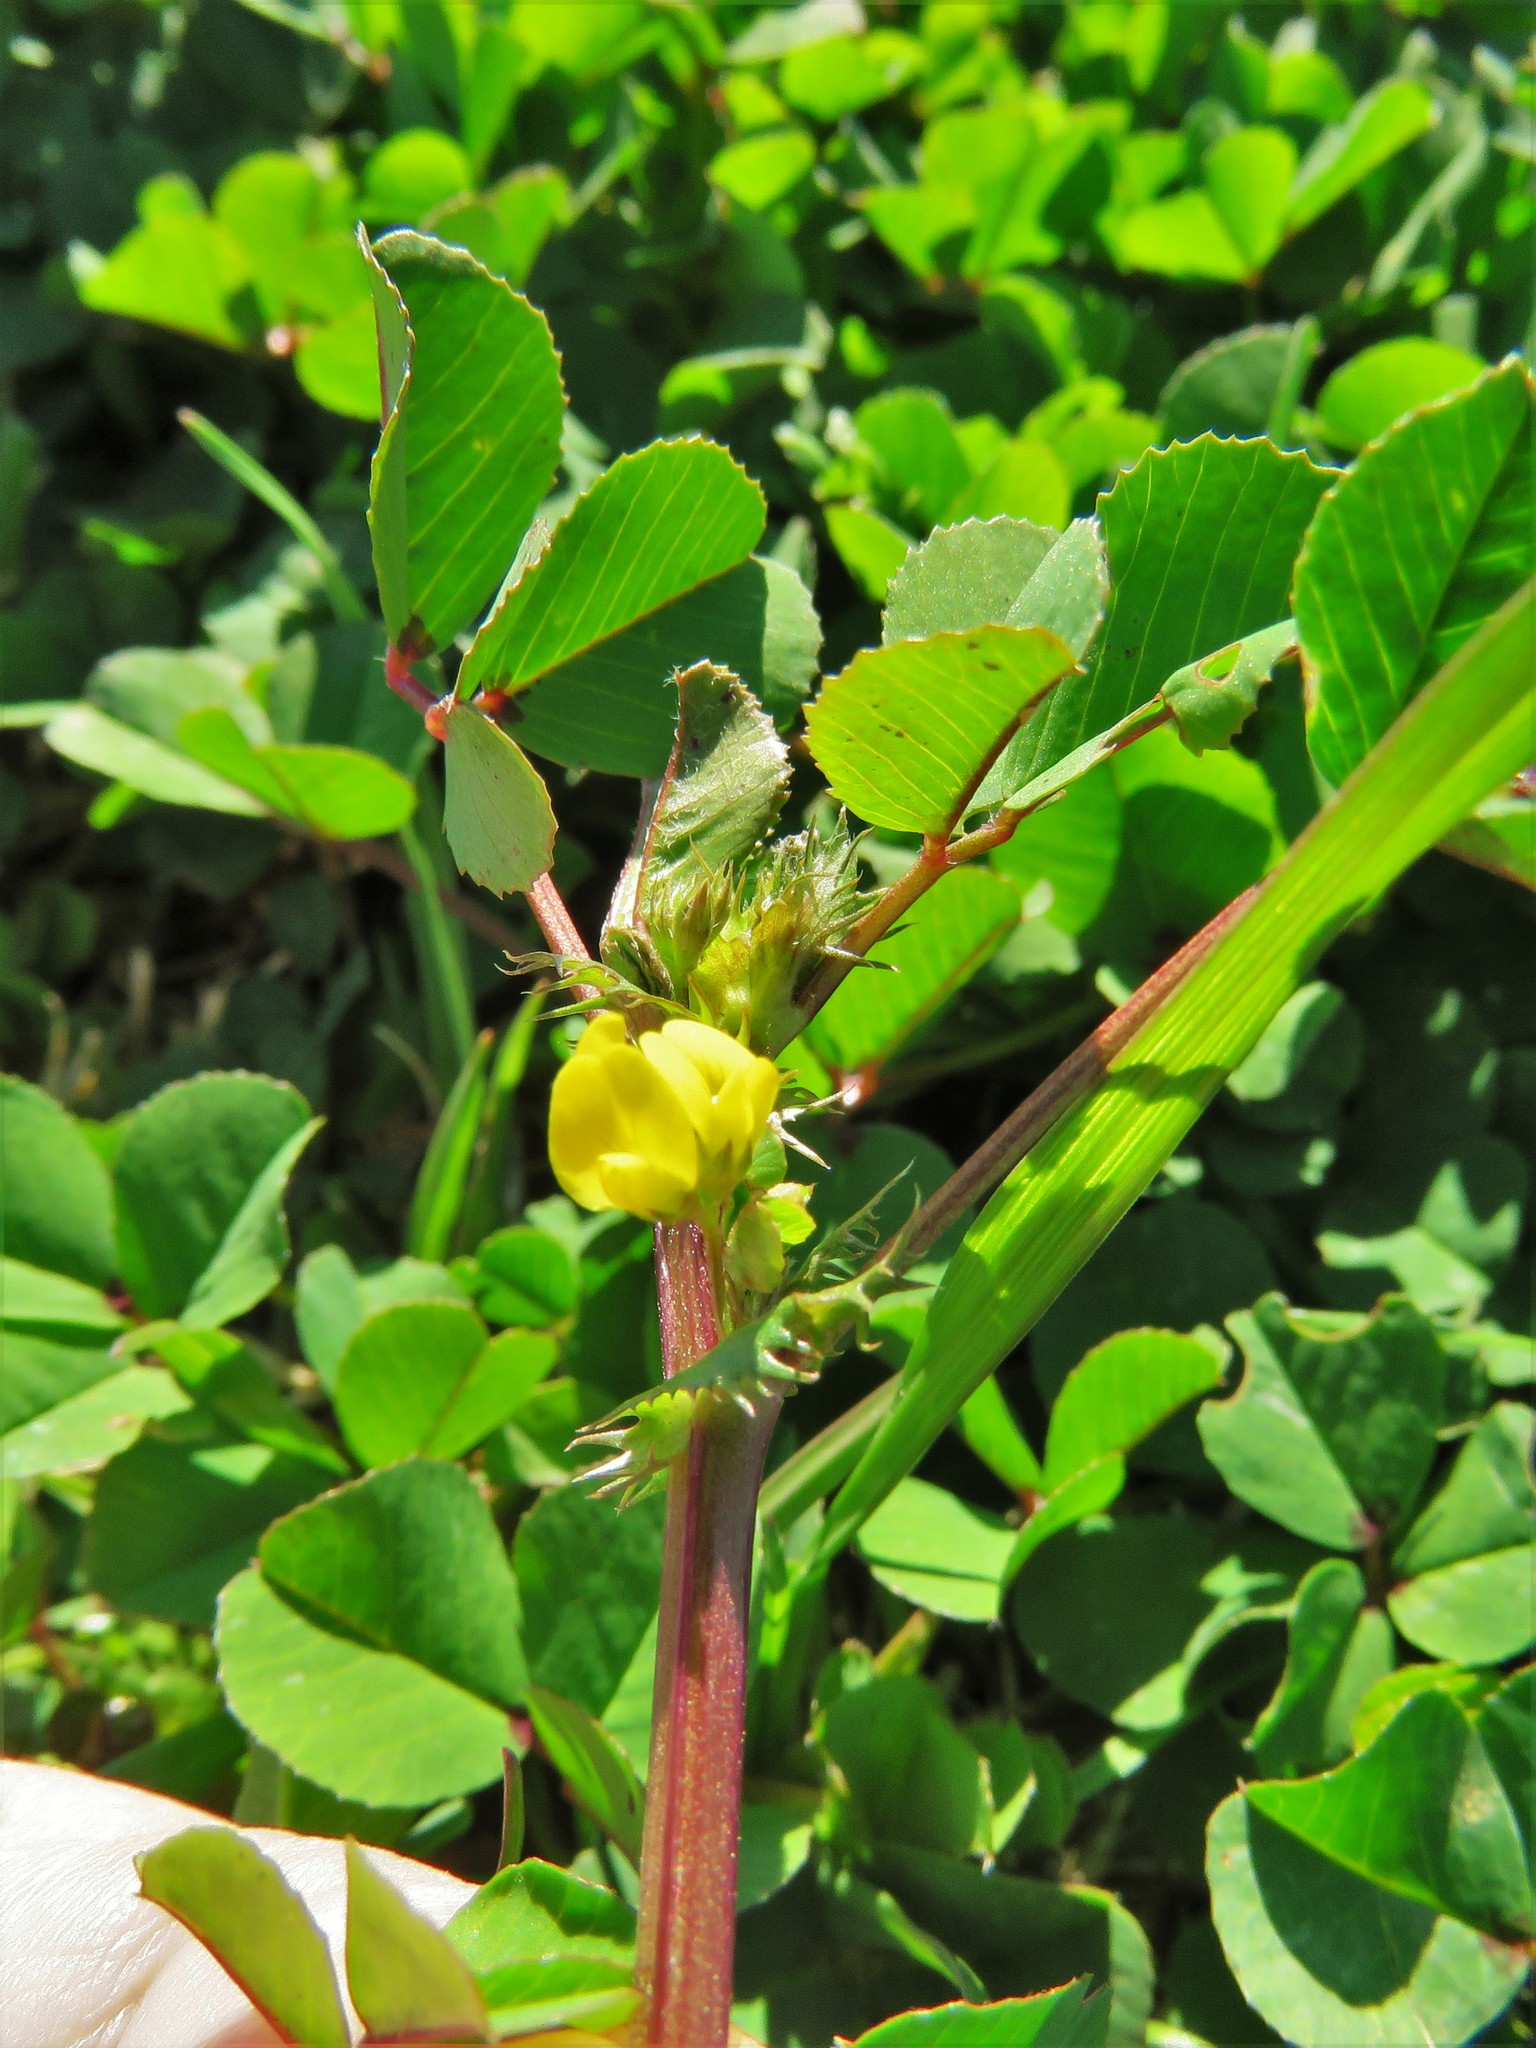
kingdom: Plantae
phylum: Tracheophyta
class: Magnoliopsida
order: Fabales
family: Fabaceae
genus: Medicago
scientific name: Medicago polymorpha
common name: Burclover
